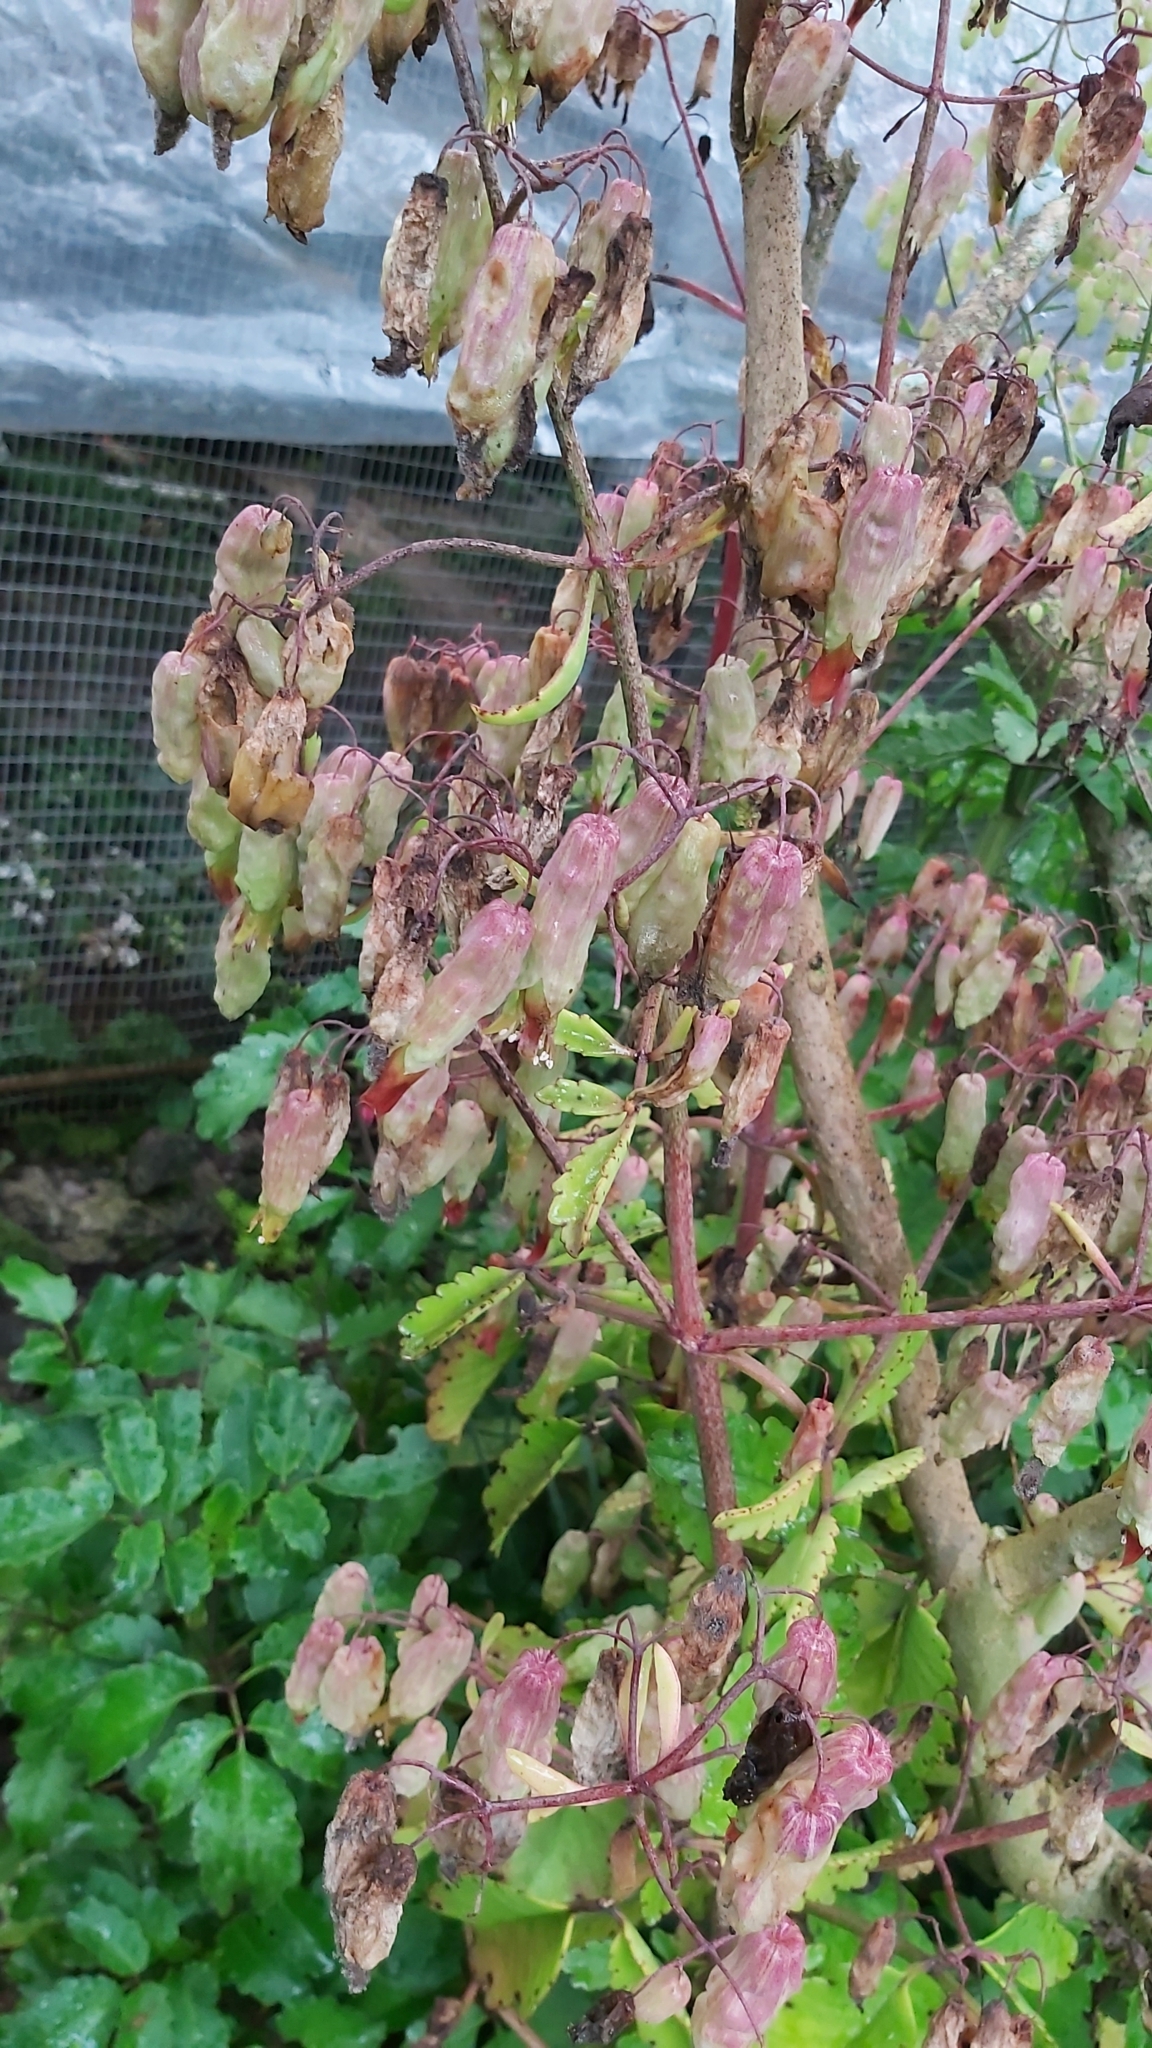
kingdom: Plantae
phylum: Tracheophyta
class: Magnoliopsida
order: Saxifragales
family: Crassulaceae
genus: Kalanchoe
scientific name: Kalanchoe pinnata
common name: Cathedral bells
